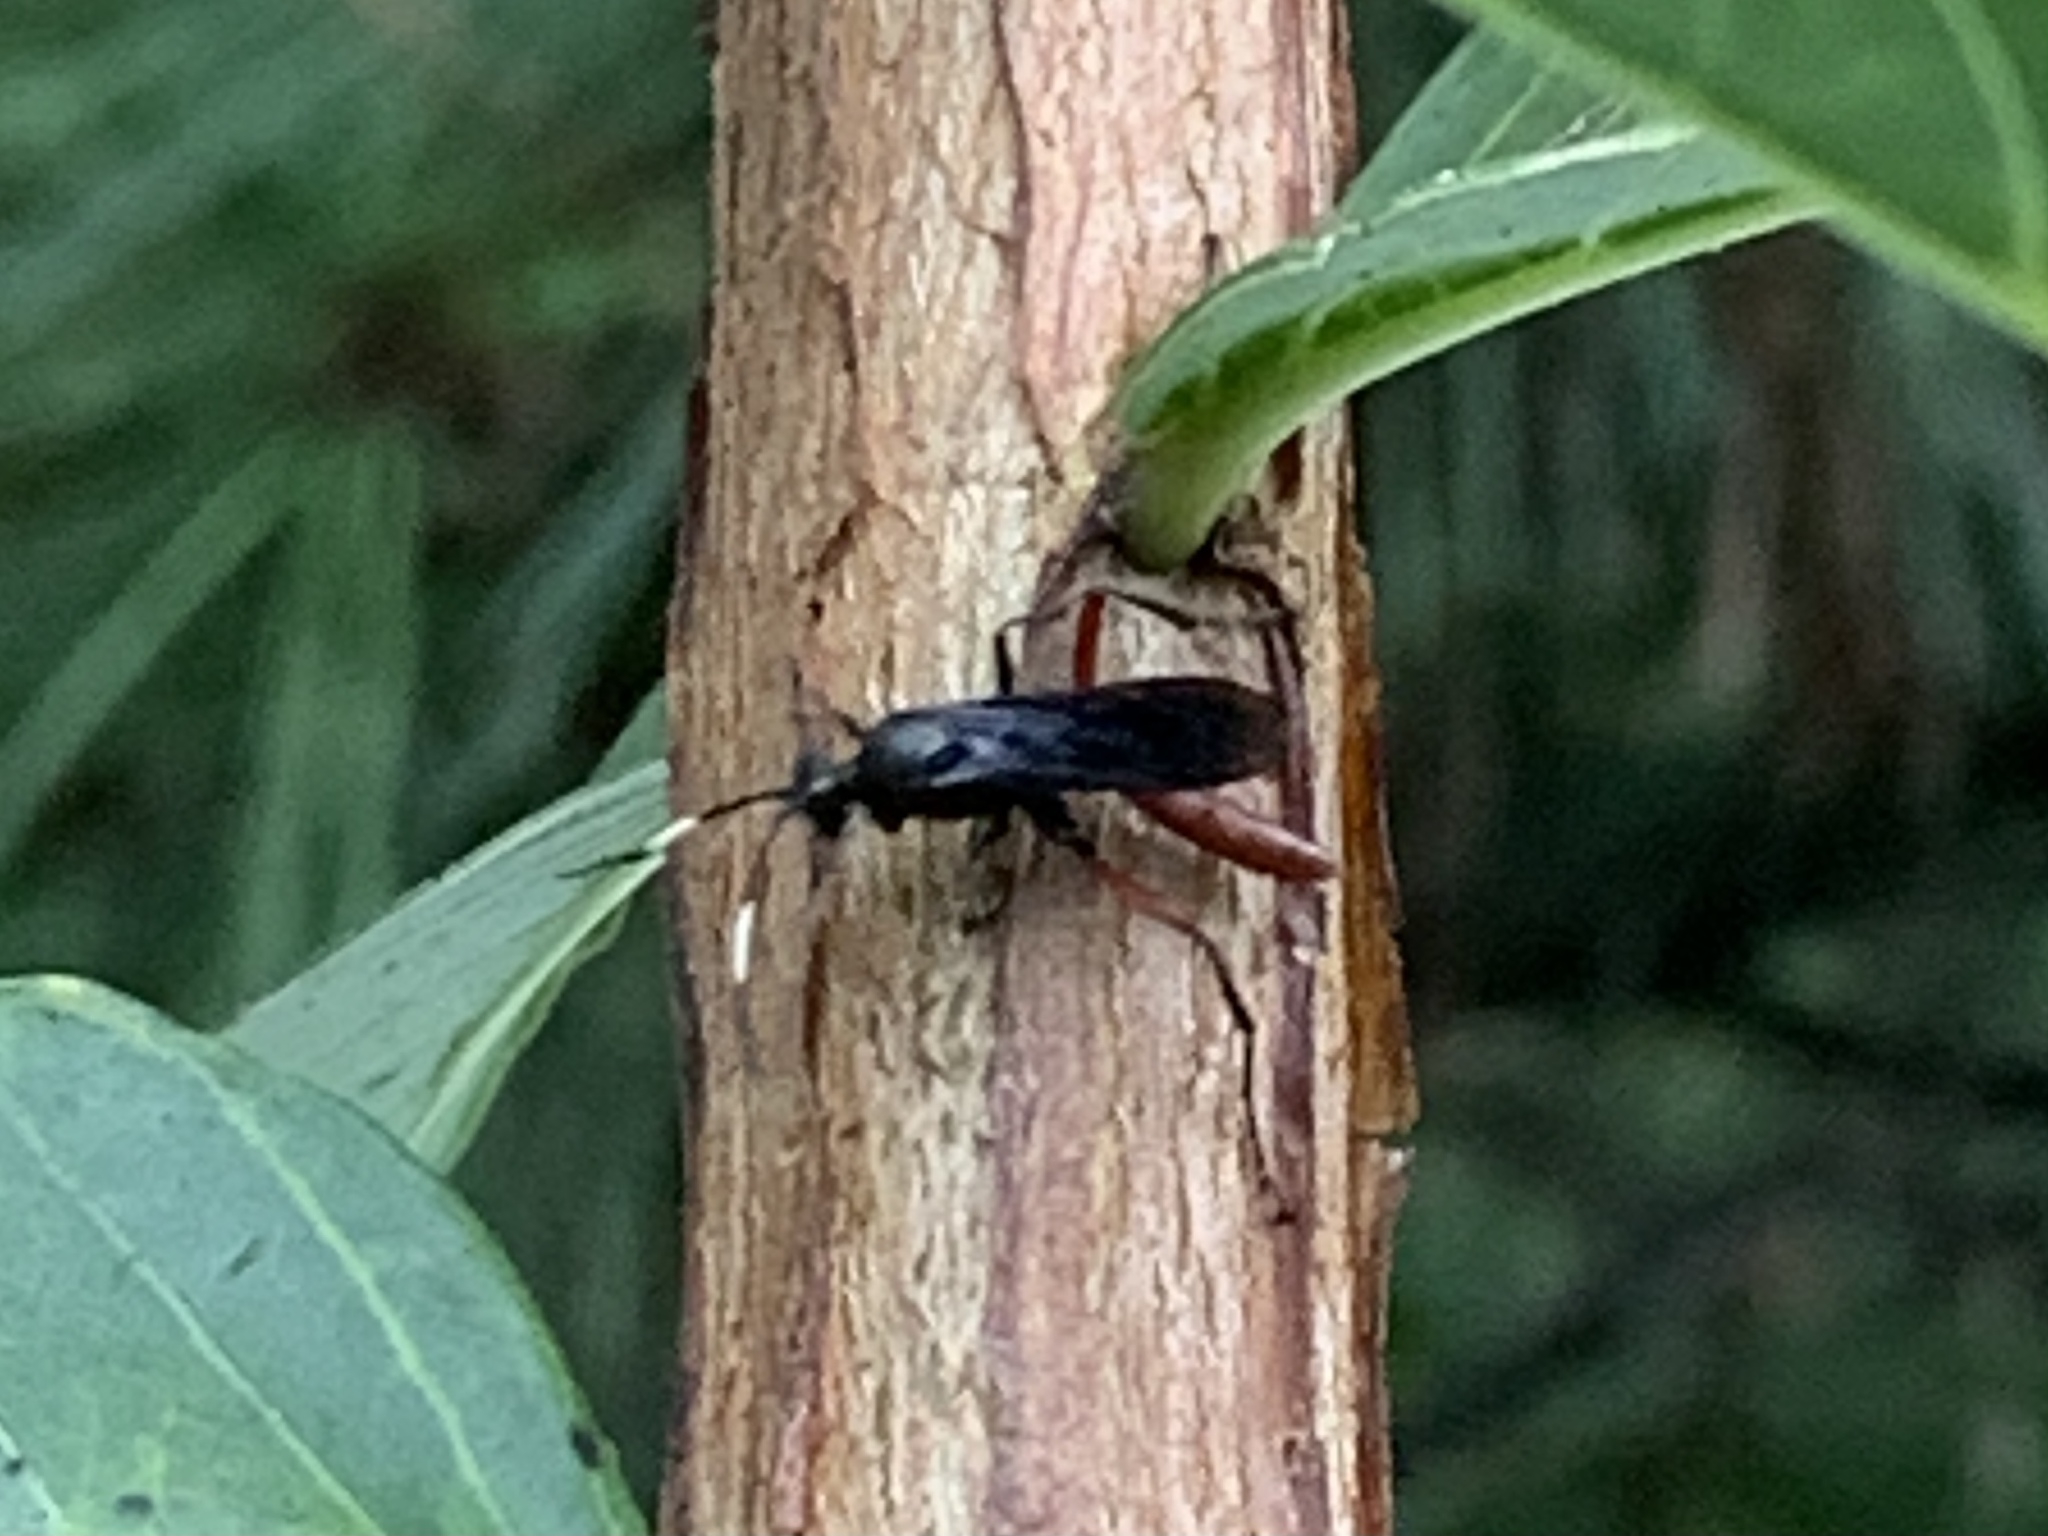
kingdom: Animalia
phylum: Arthropoda
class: Insecta
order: Hymenoptera
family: Ichneumonidae
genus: Limonethe
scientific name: Limonethe maurator
